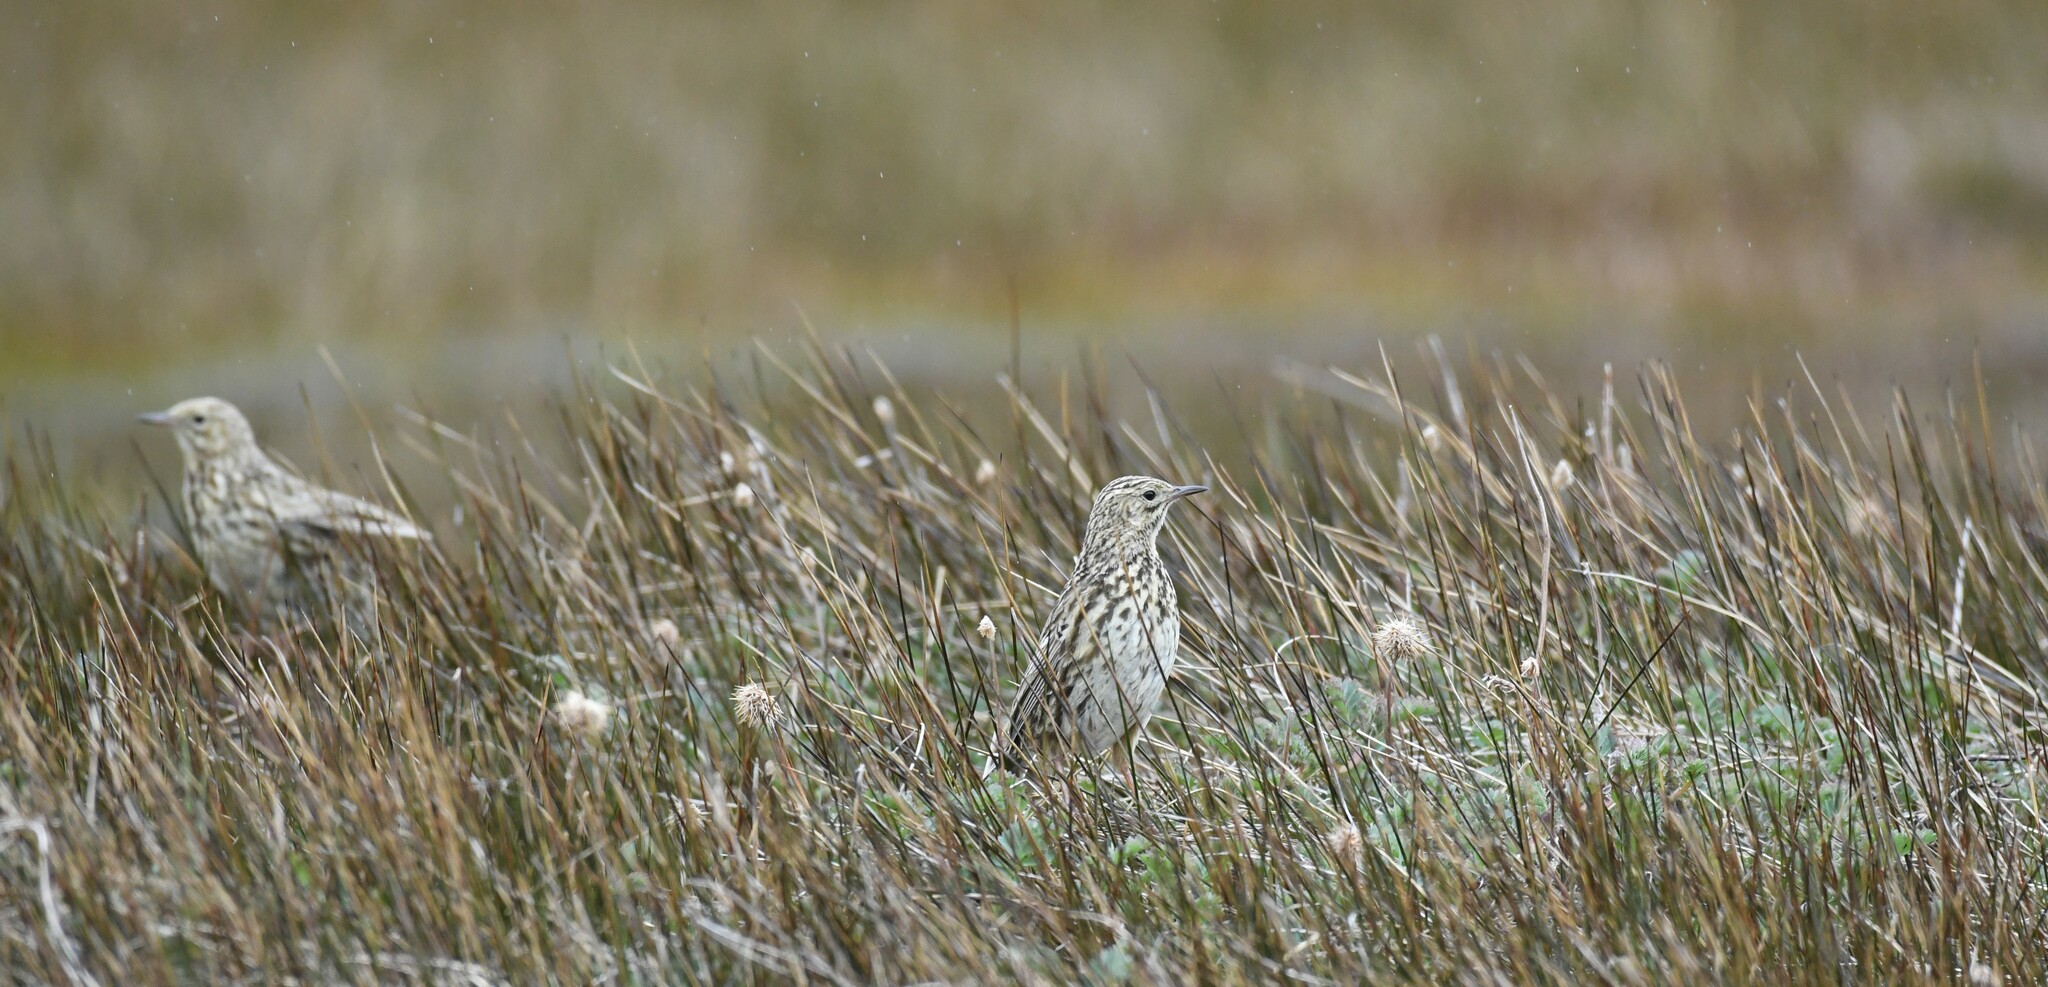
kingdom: Animalia
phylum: Chordata
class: Aves
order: Passeriformes
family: Motacillidae
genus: Anthus
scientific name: Anthus antarcticus
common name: South georgia pipit
